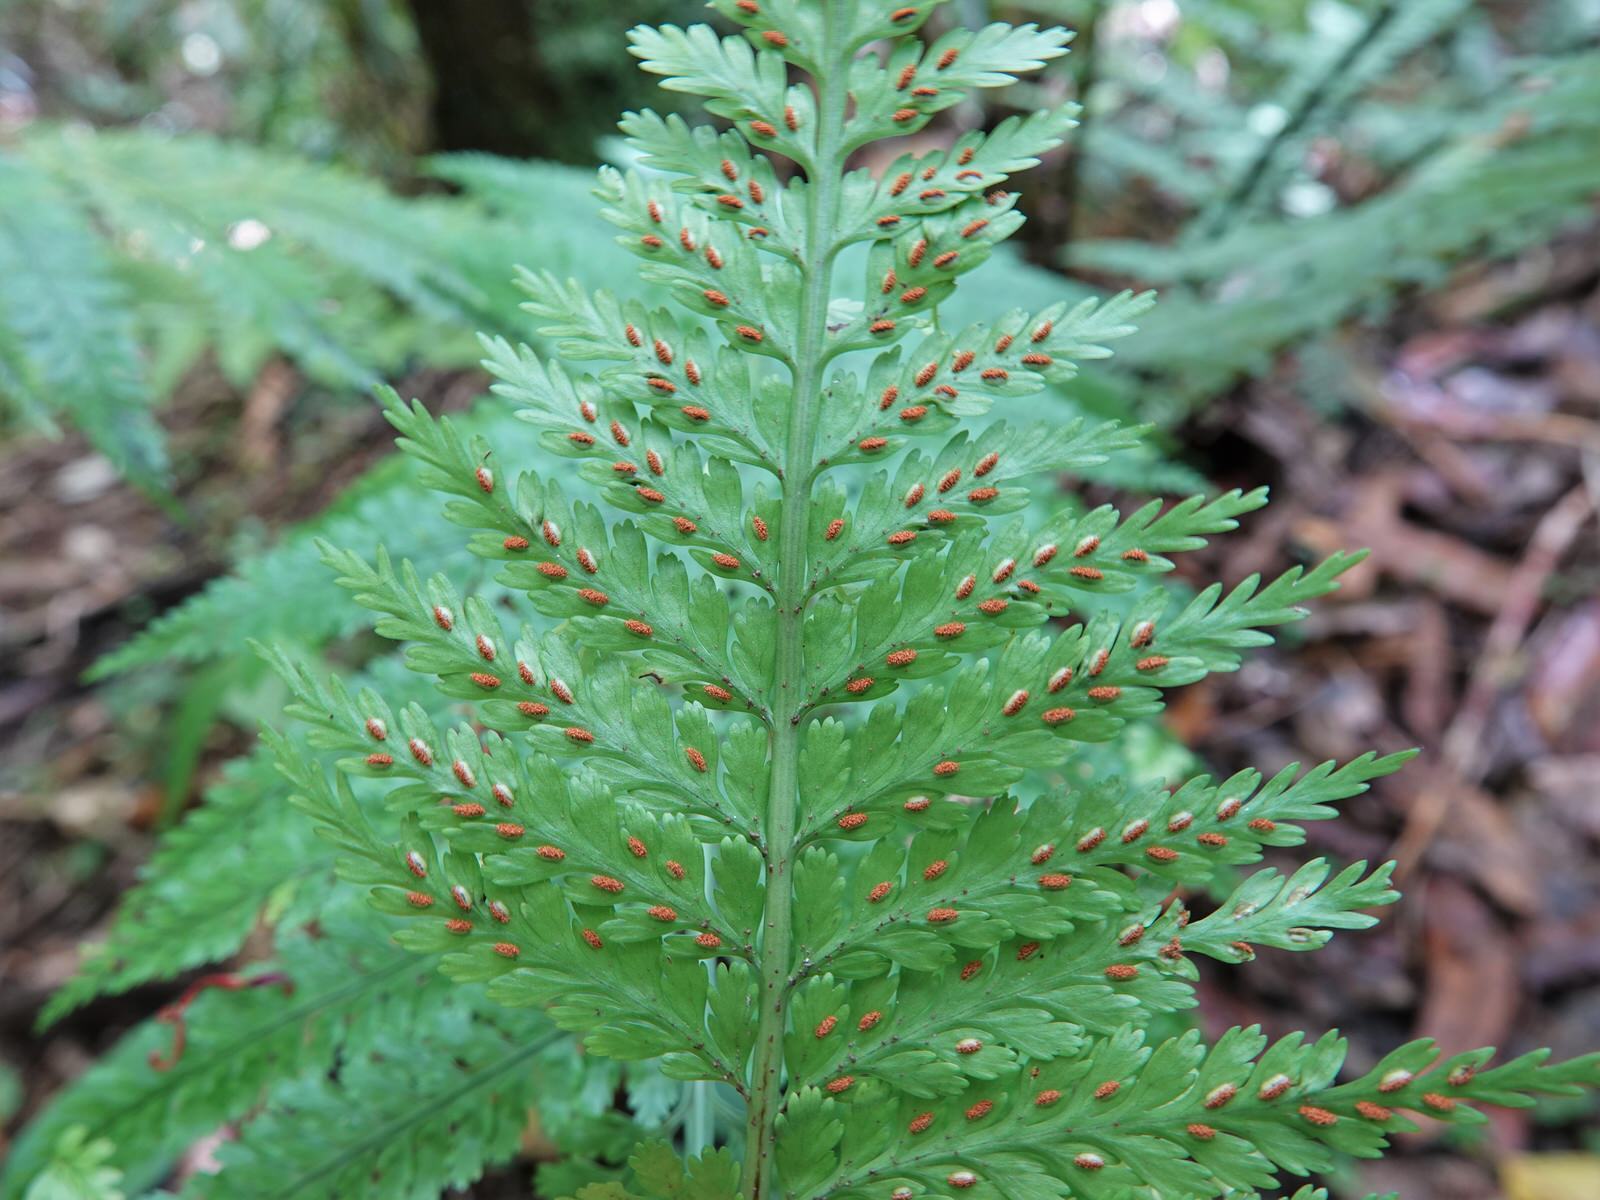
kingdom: Plantae
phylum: Tracheophyta
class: Polypodiopsida
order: Polypodiales
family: Aspleniaceae
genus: Asplenium
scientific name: Asplenium bulbiferum
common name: Mother fern
